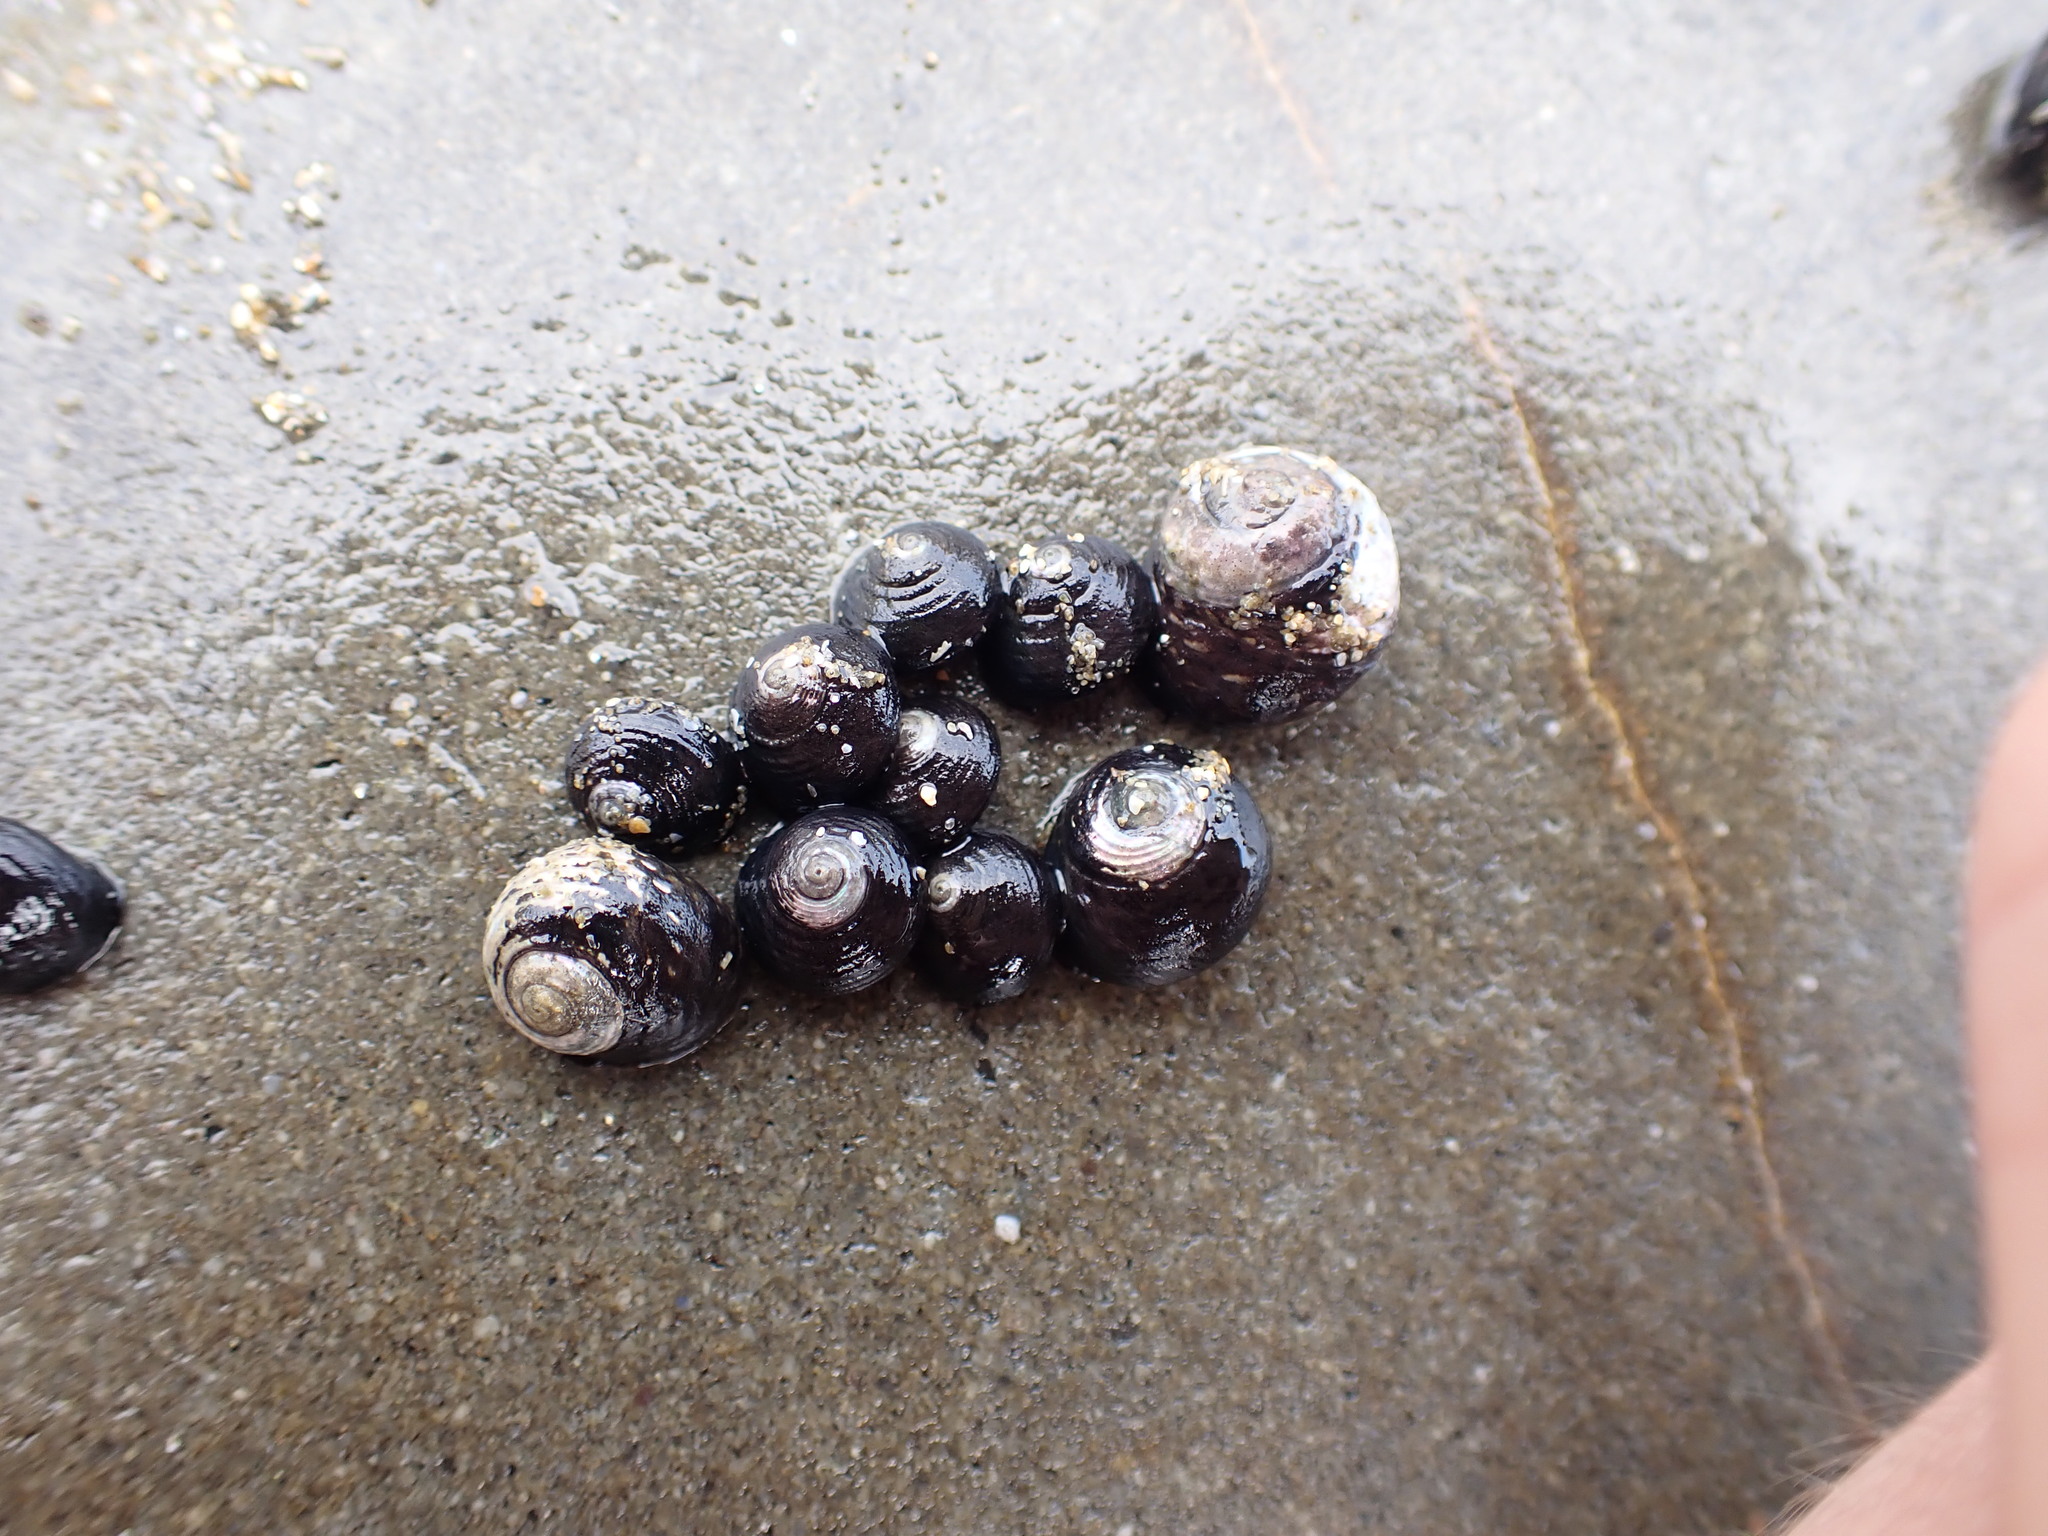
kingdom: Animalia
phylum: Mollusca
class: Gastropoda
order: Trochida
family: Trochidae
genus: Diloma
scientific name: Diloma aridum
